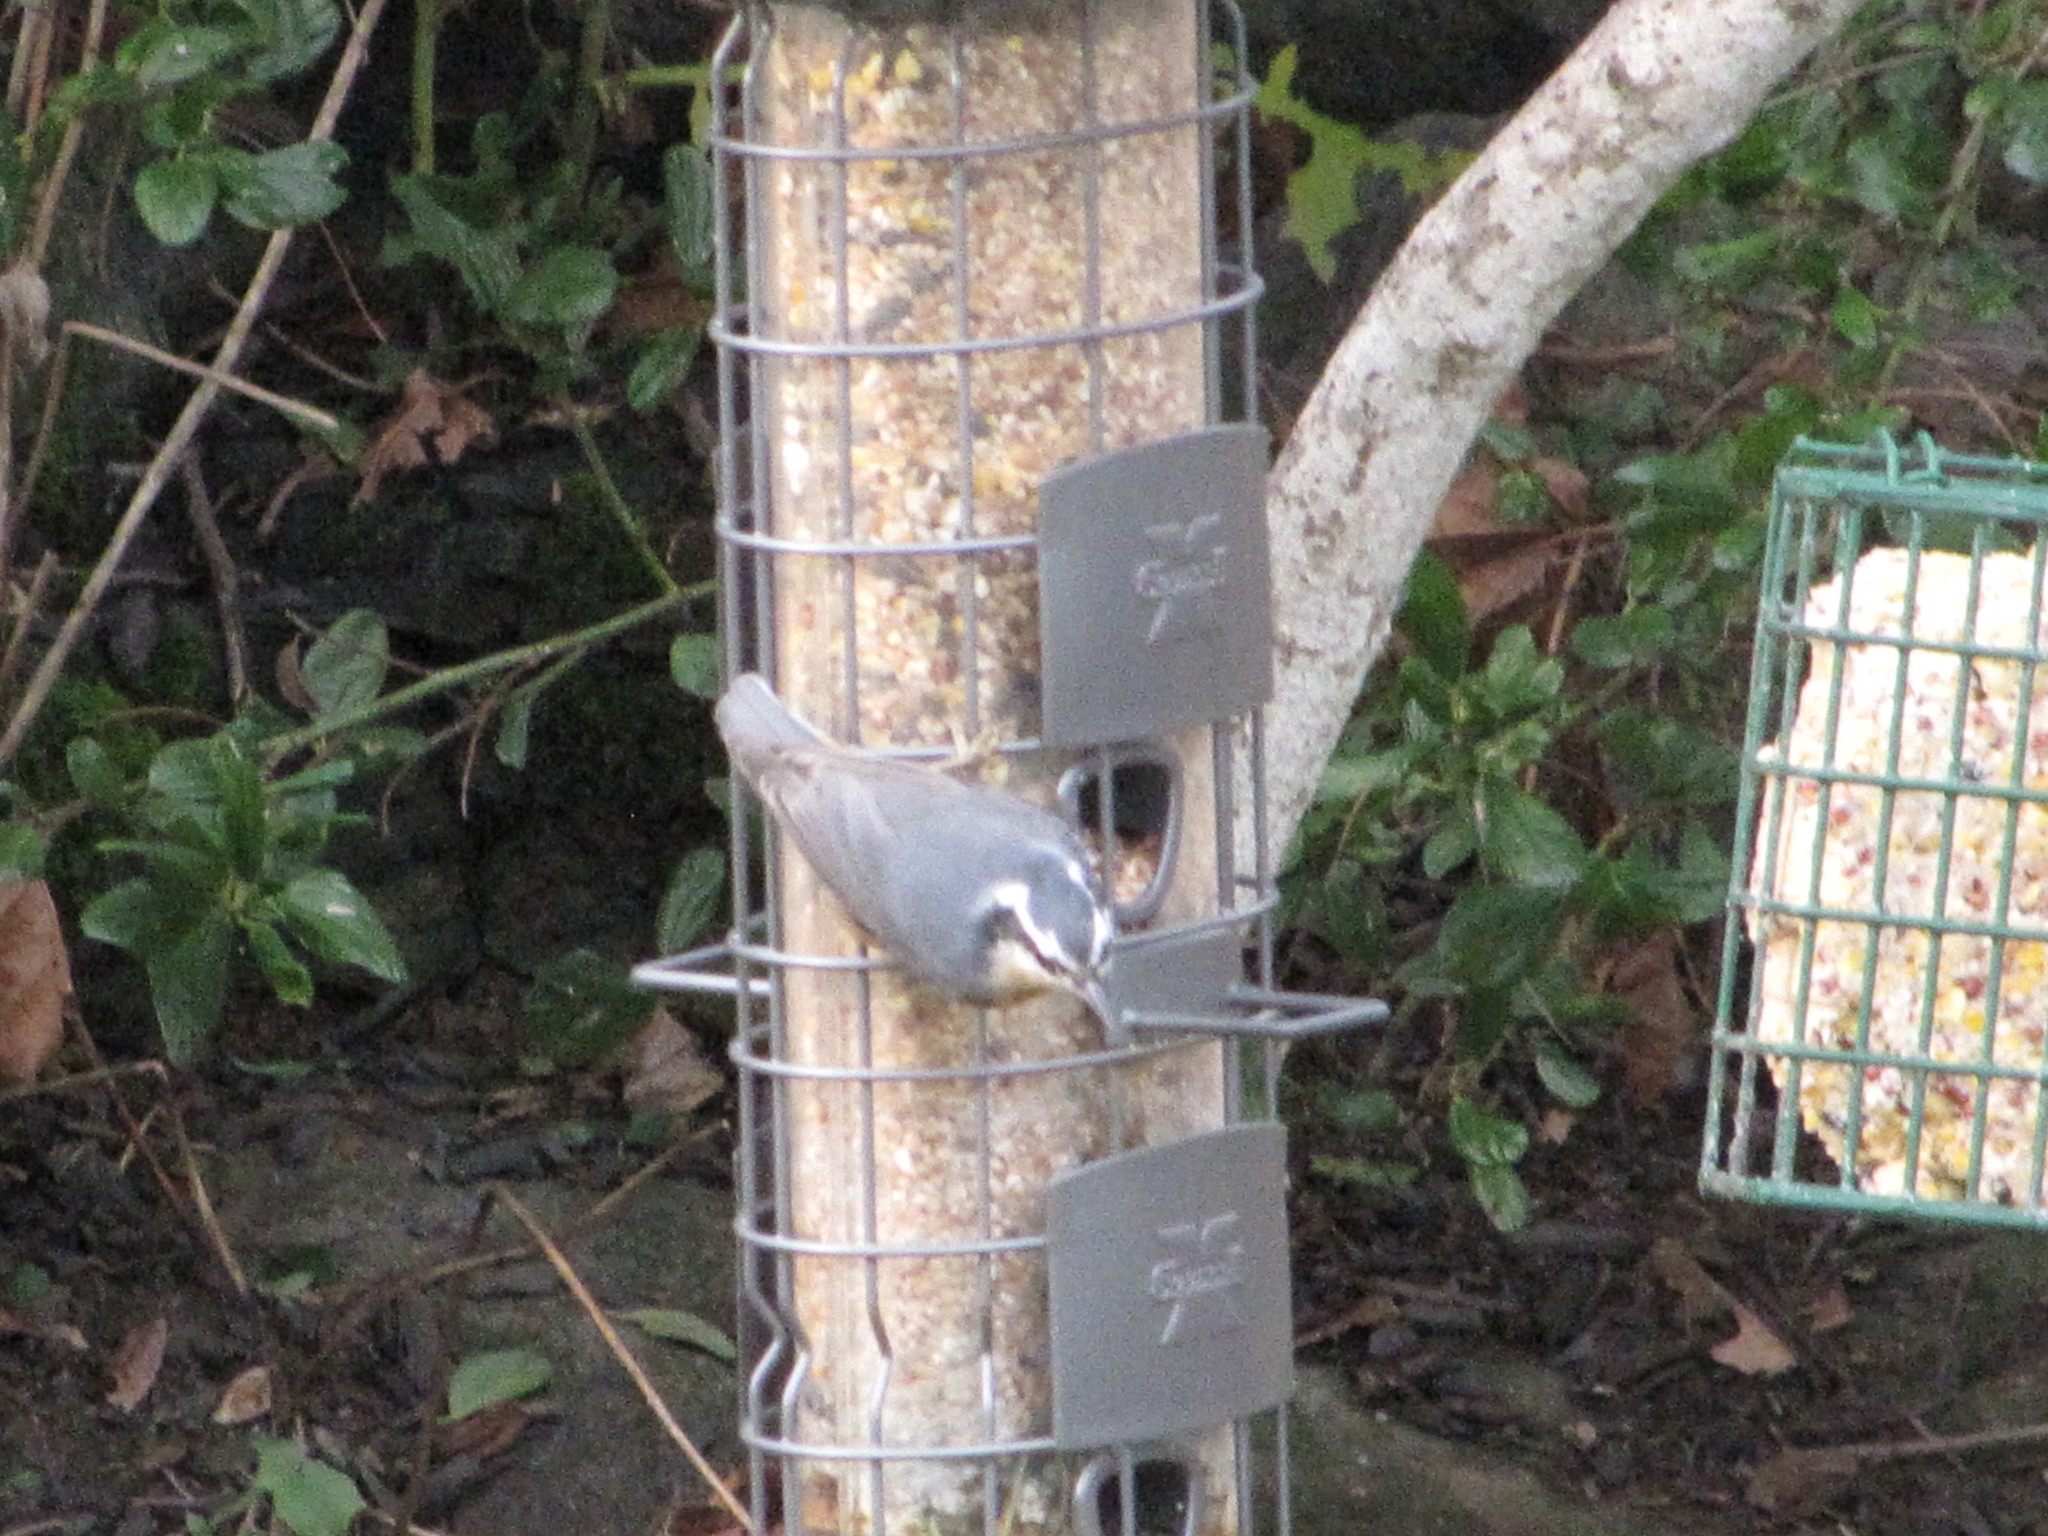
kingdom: Animalia
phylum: Chordata
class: Aves
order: Passeriformes
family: Sittidae
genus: Sitta
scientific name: Sitta canadensis
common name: Red-breasted nuthatch
